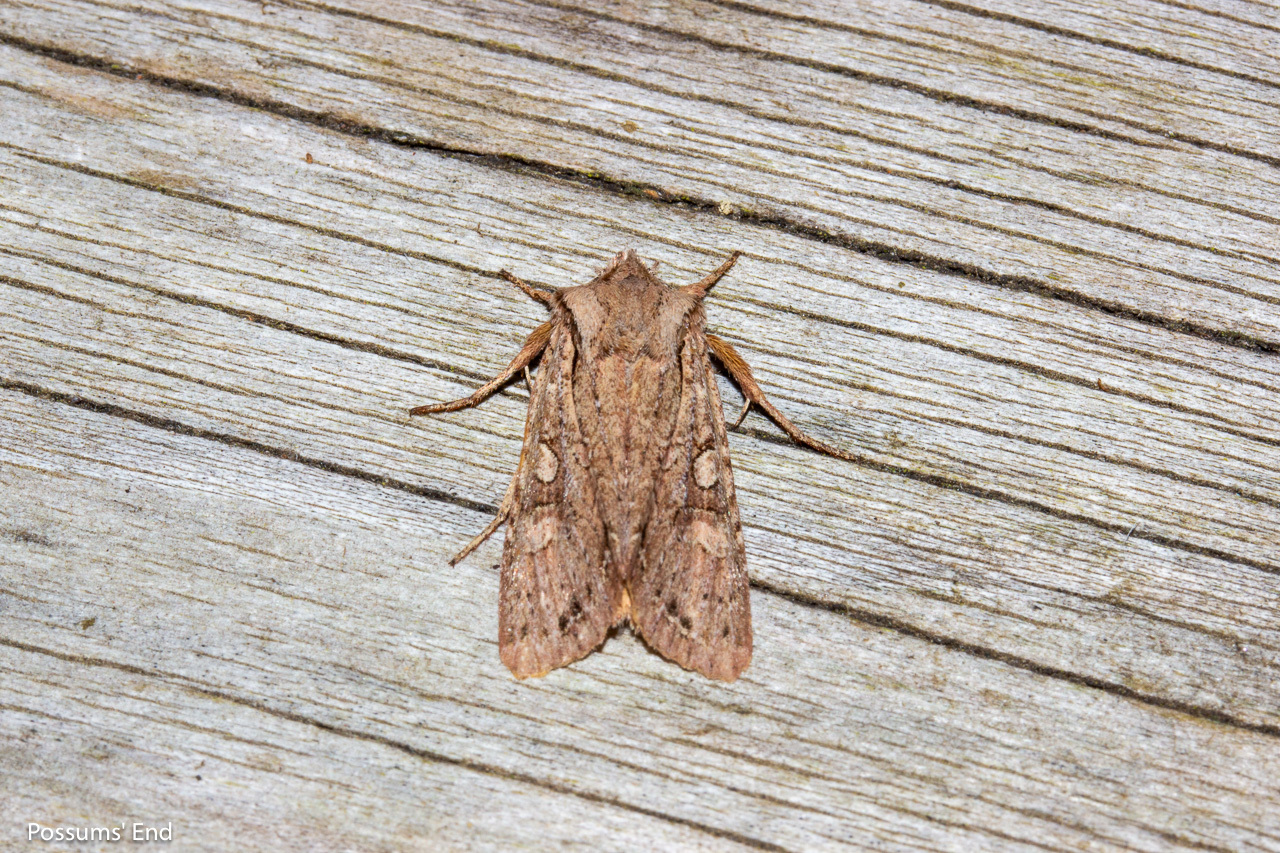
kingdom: Animalia
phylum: Arthropoda
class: Insecta
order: Lepidoptera
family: Noctuidae
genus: Ichneutica
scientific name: Ichneutica
